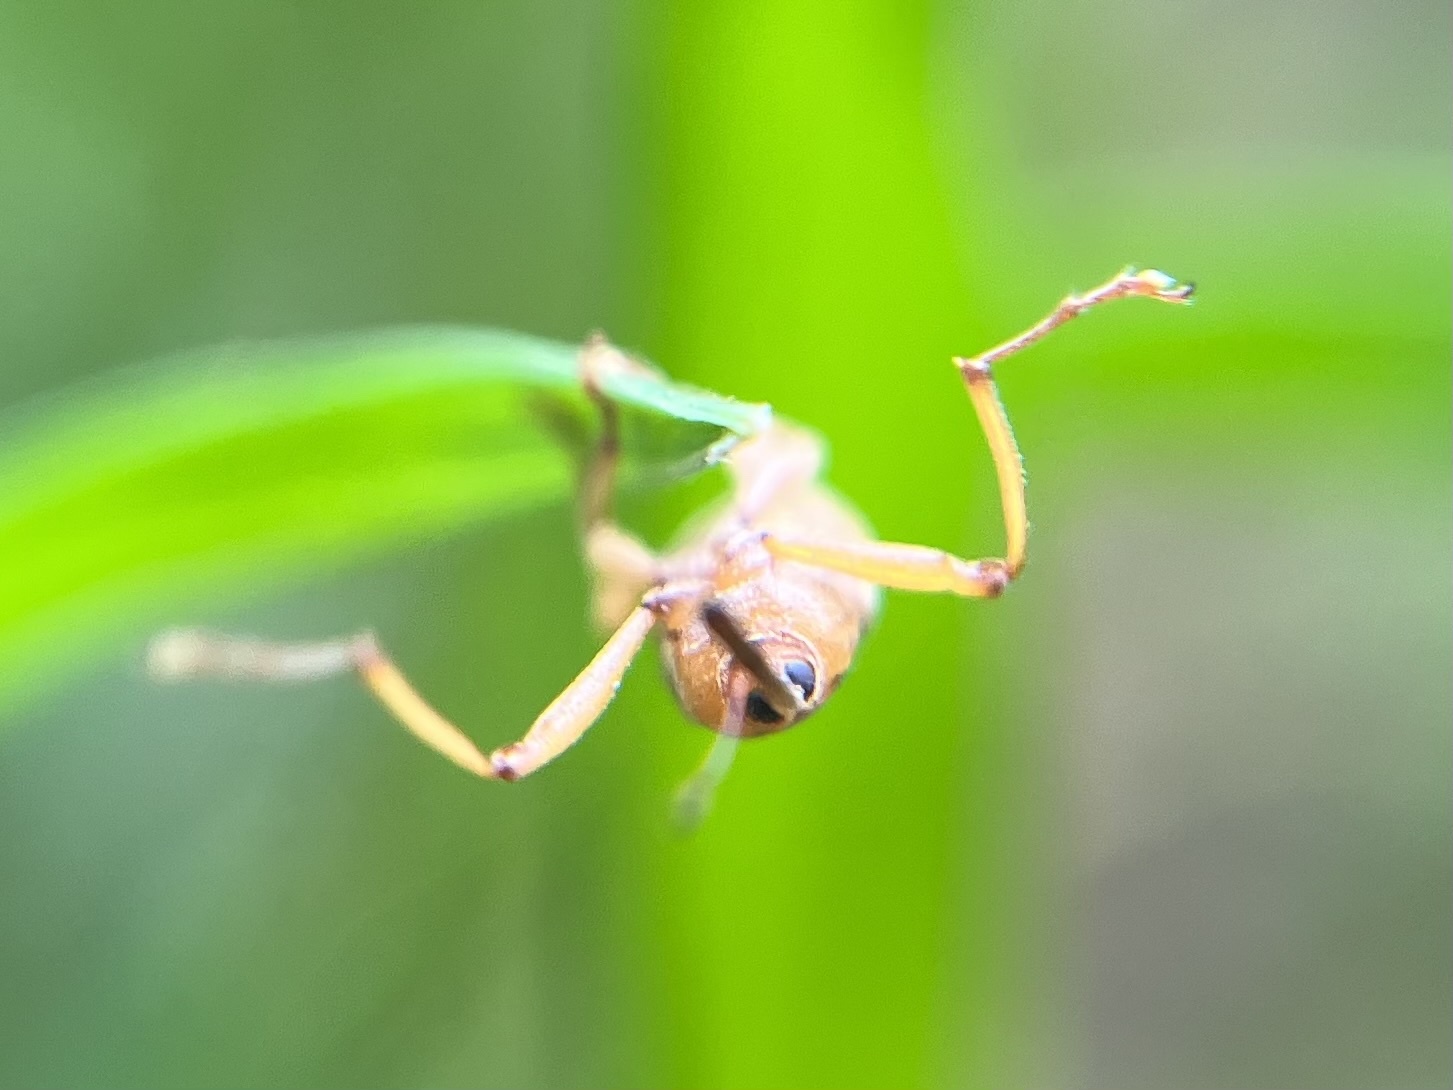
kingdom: Animalia
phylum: Arthropoda
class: Insecta
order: Coleoptera
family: Curculionidae
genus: Dorytomus
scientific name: Dorytomus longimanus
